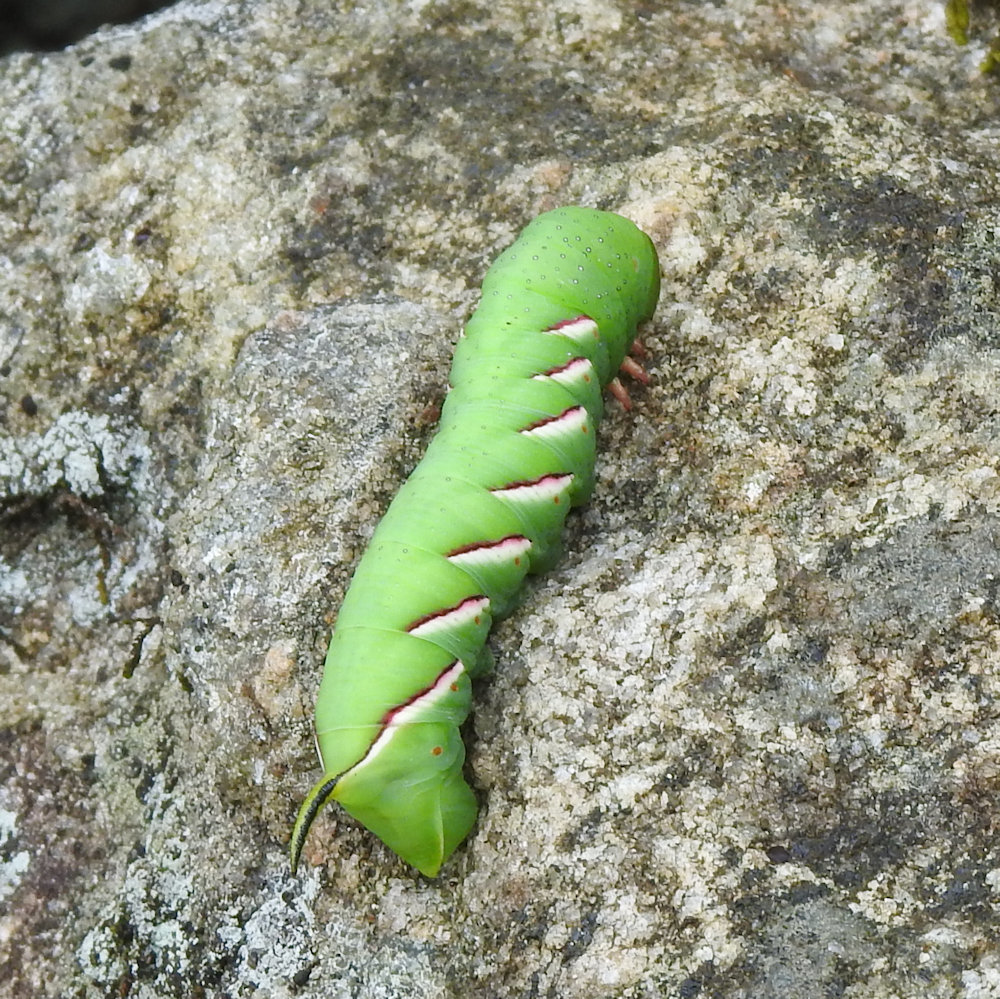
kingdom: Animalia
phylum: Arthropoda
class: Insecta
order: Lepidoptera
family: Sphingidae
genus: Sphinx
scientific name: Sphinx poecila
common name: Northern apple sphinx
